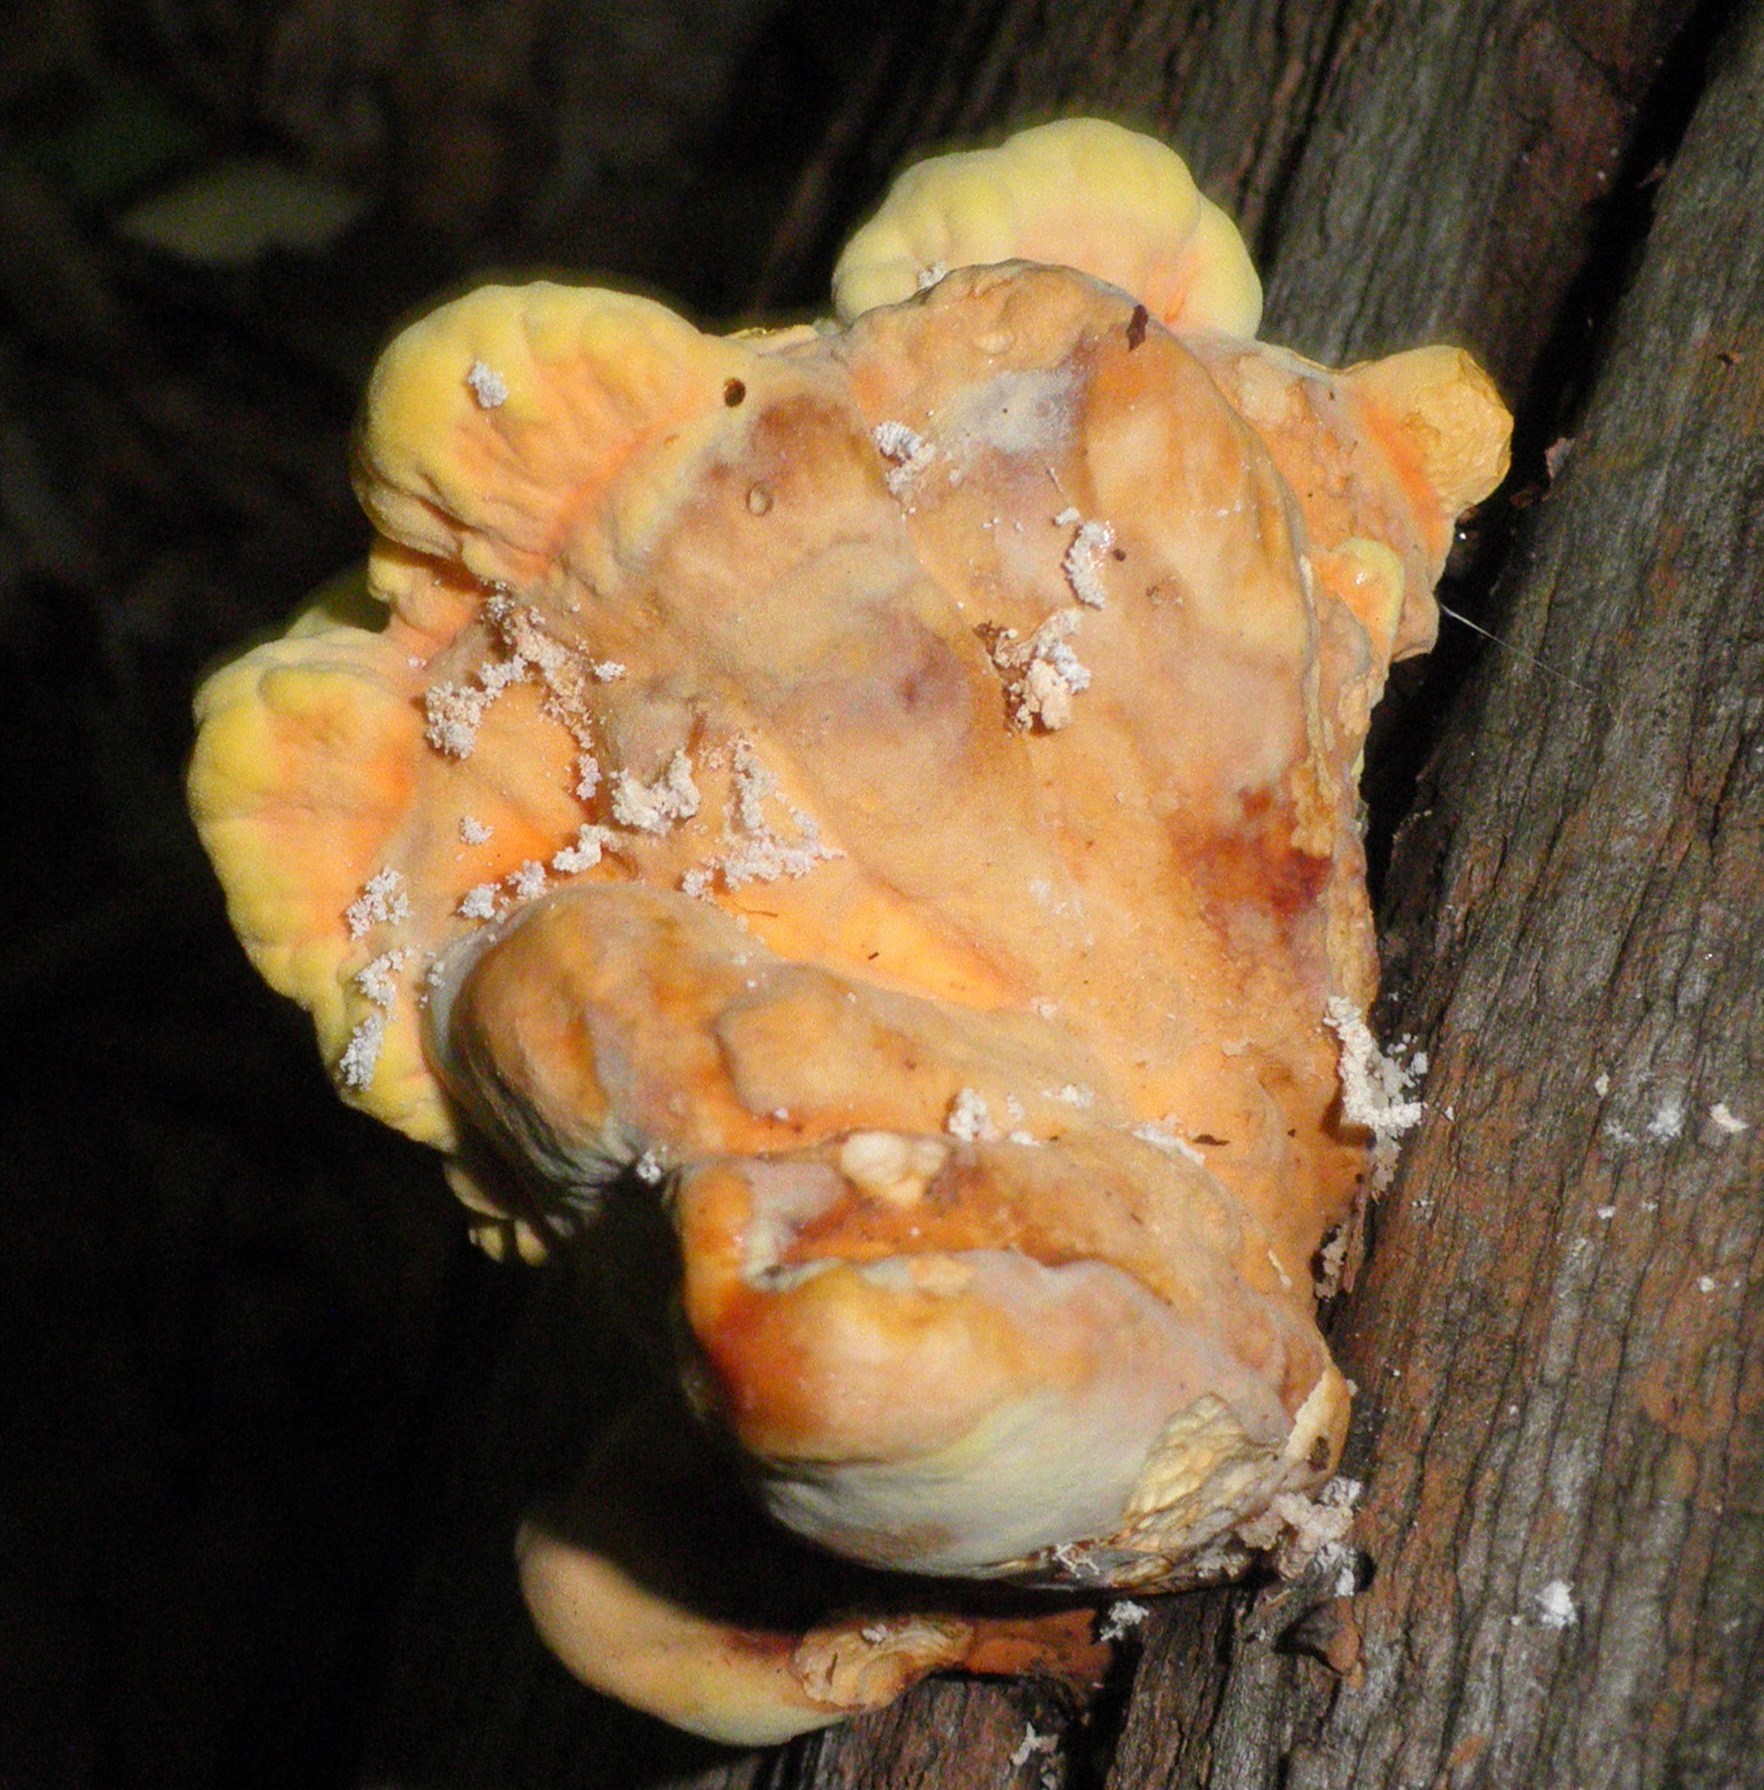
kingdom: Fungi
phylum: Basidiomycota
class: Agaricomycetes
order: Polyporales
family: Laetiporaceae
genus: Laetiporus
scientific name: Laetiporus sulphureus
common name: Chicken of the woods
